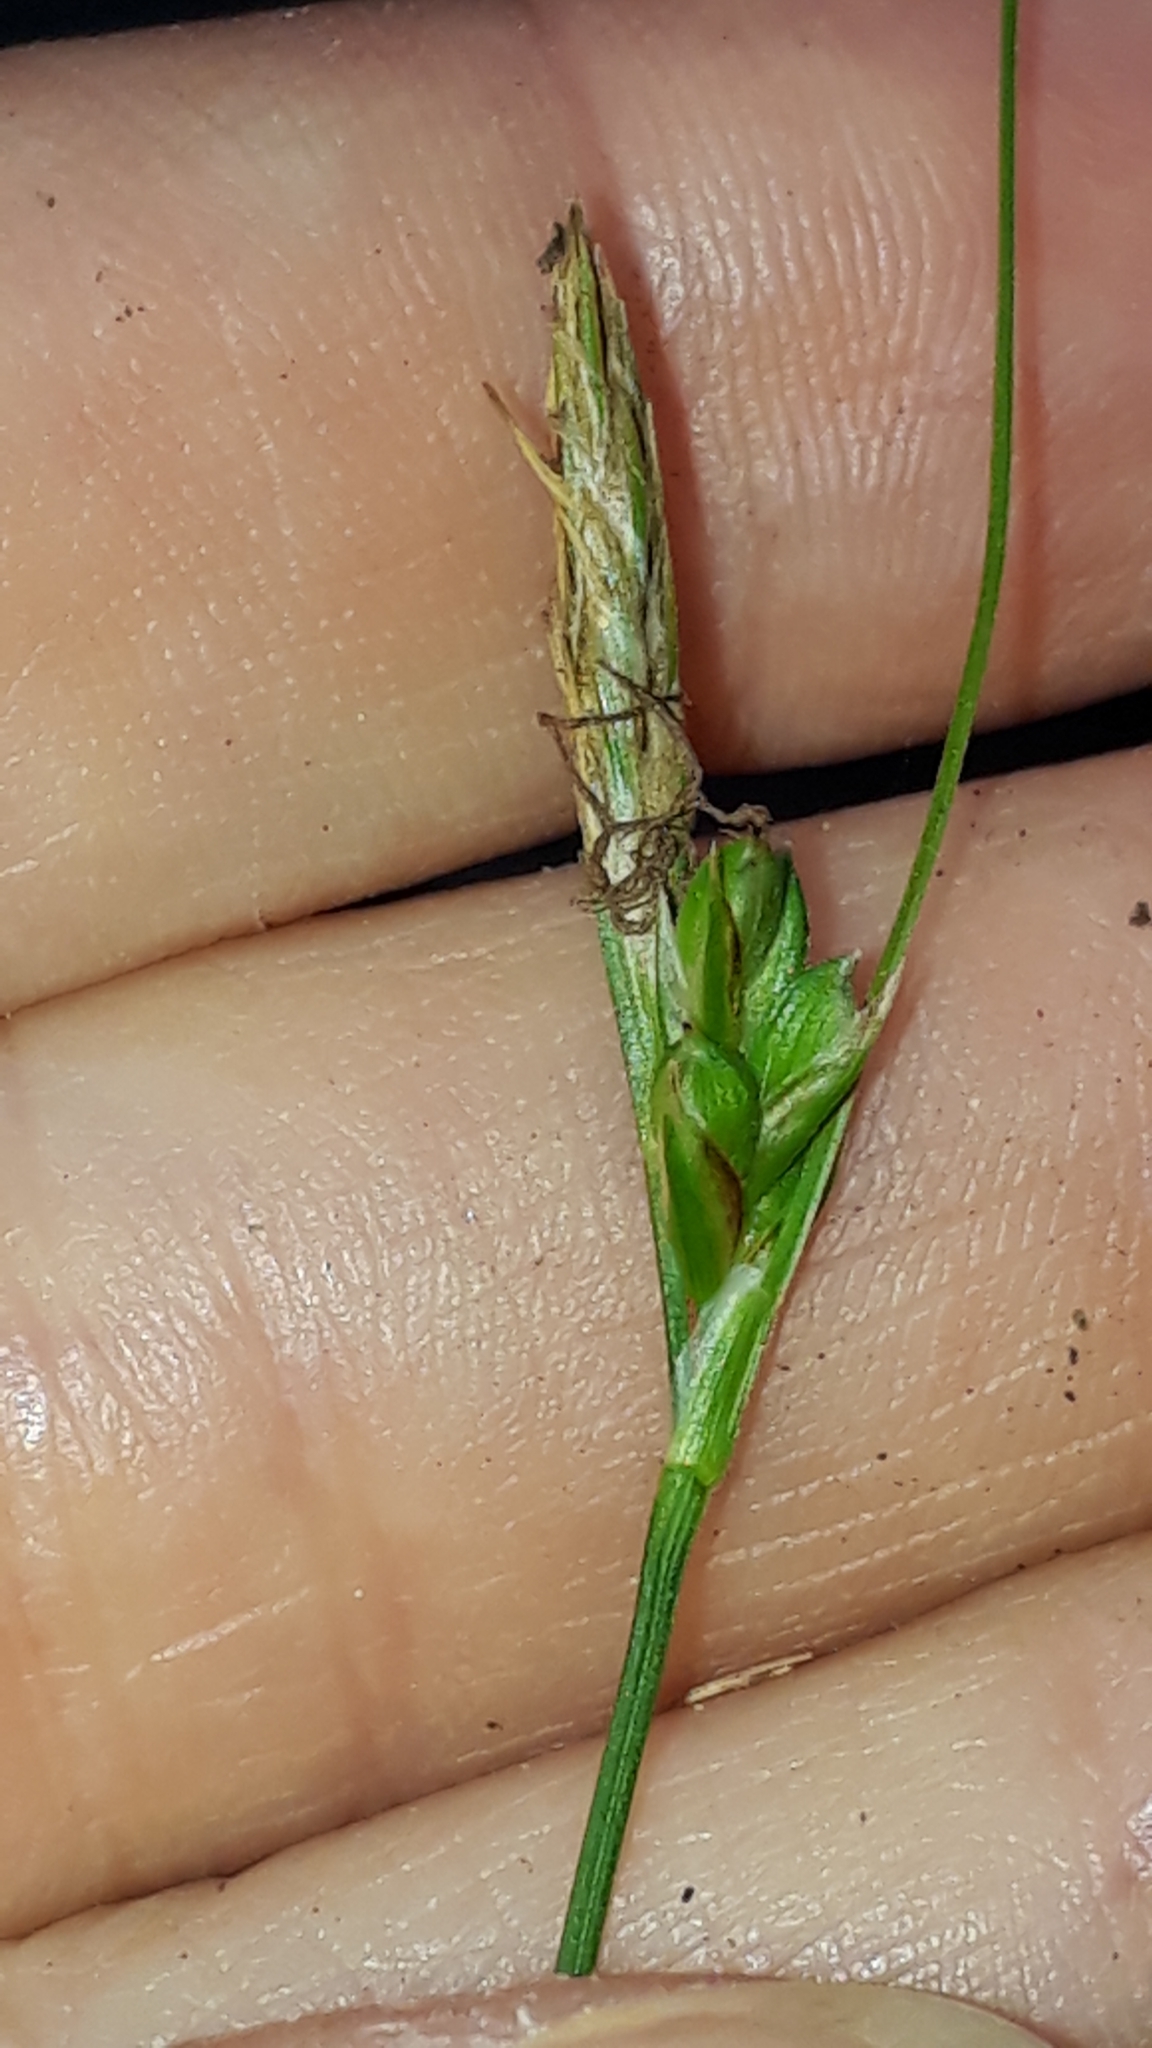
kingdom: Plantae
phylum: Tracheophyta
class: Liliopsida
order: Poales
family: Cyperaceae
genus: Carex
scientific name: Carex halleriana
